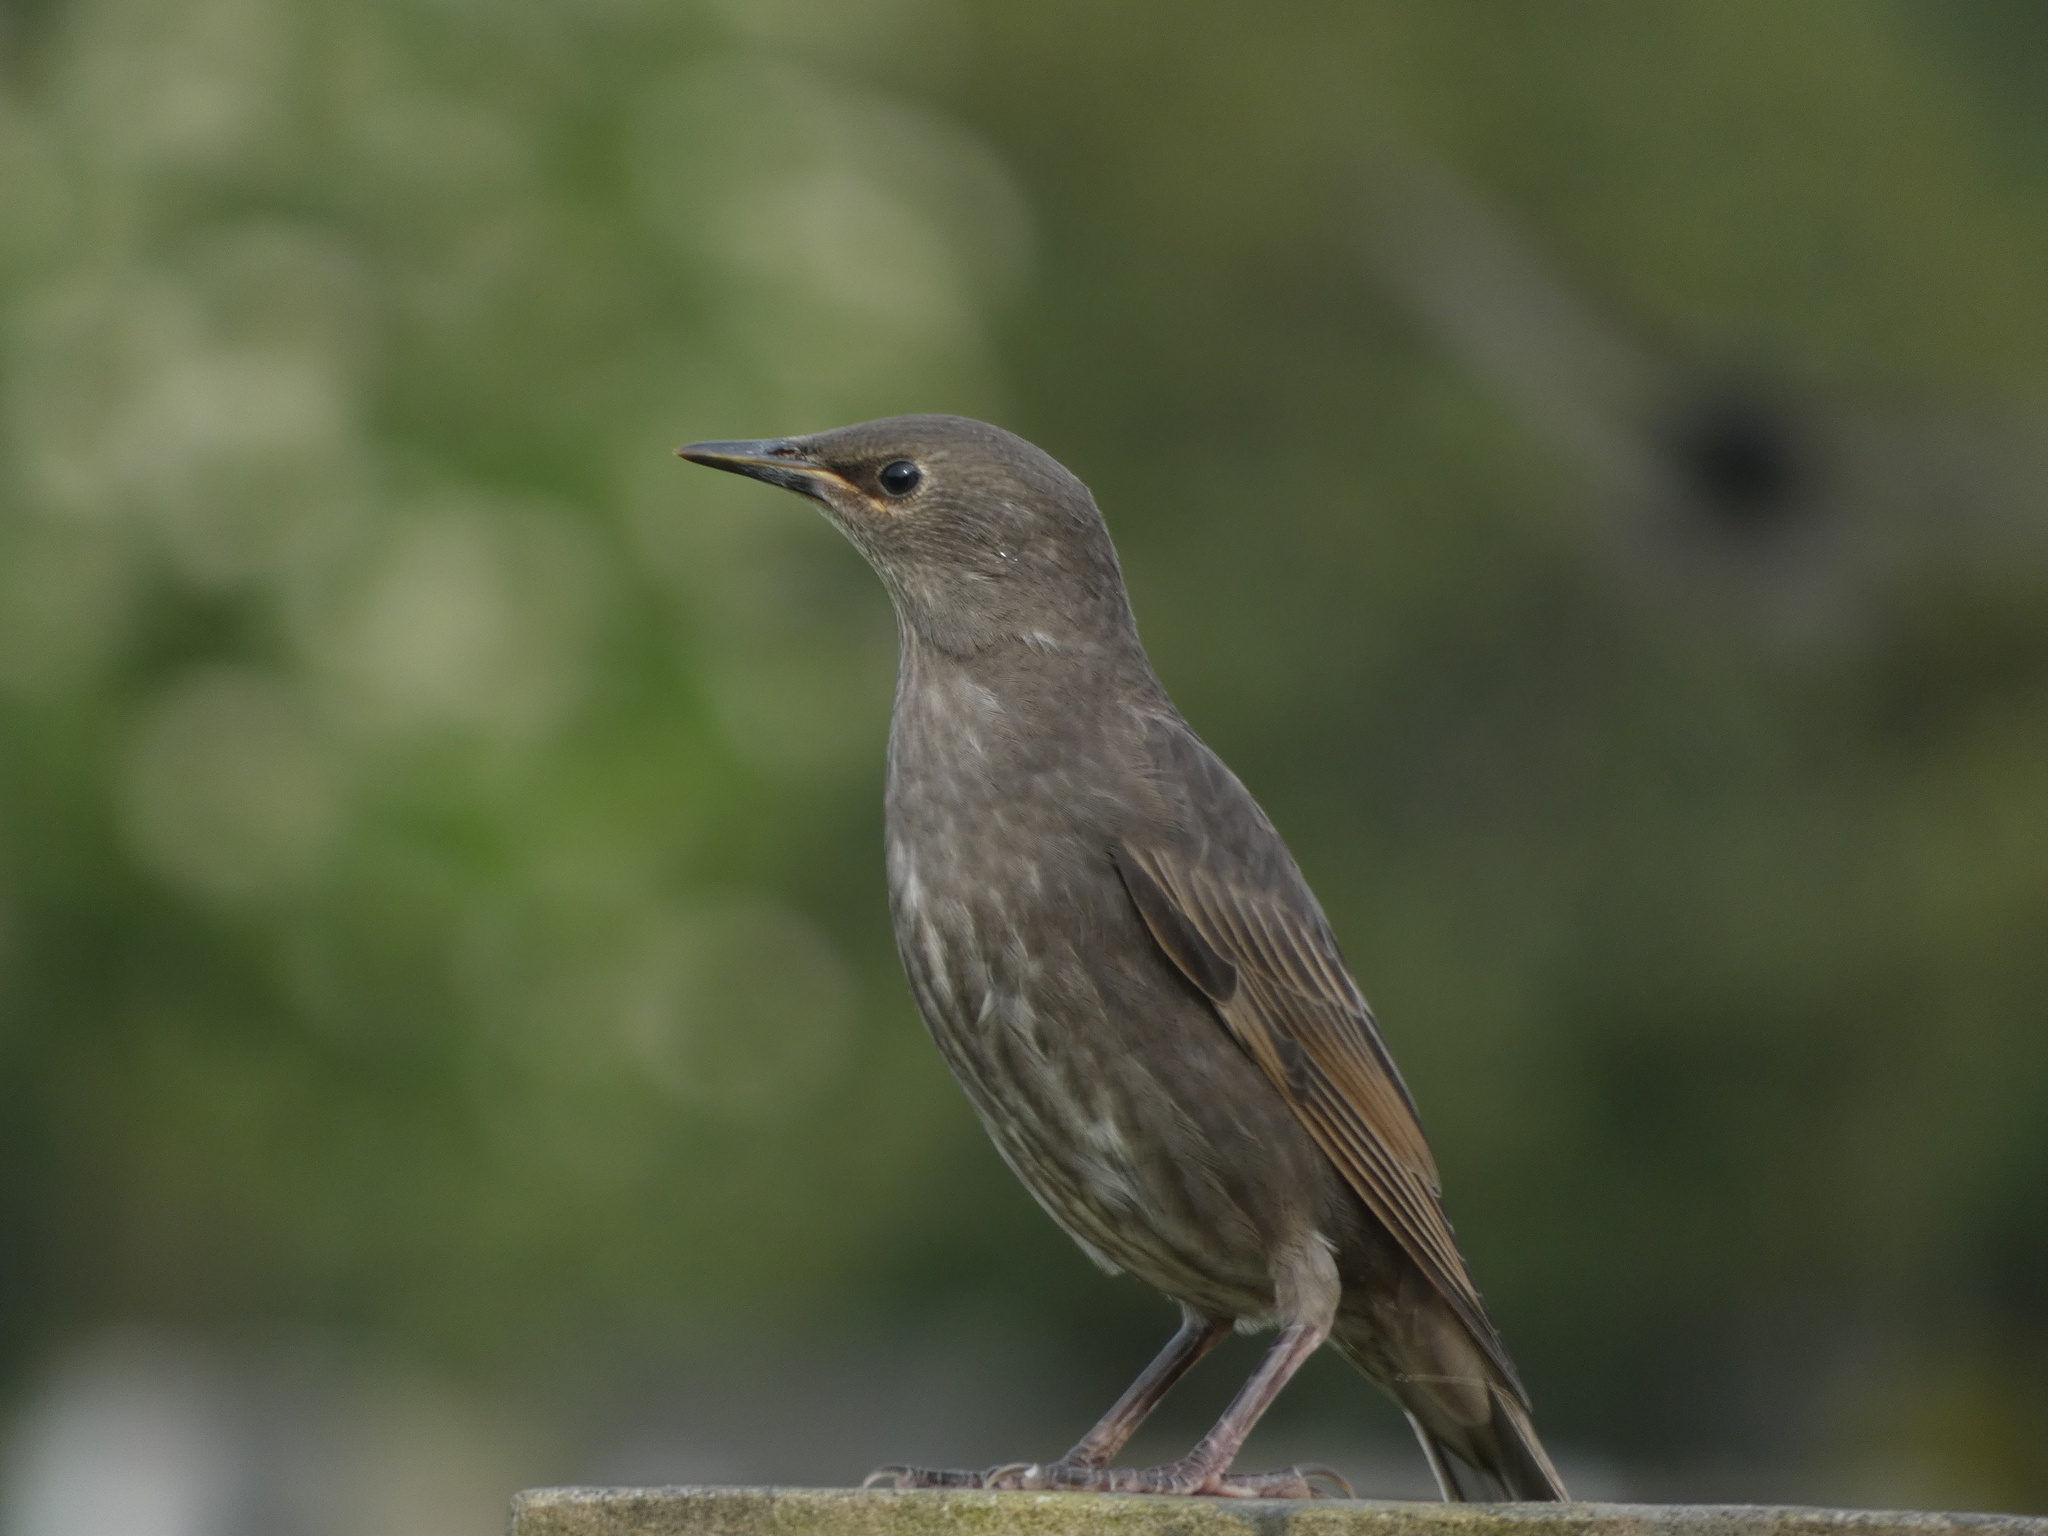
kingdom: Animalia
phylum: Chordata
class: Aves
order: Passeriformes
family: Sturnidae
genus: Sturnus
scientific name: Sturnus vulgaris
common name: Common starling
